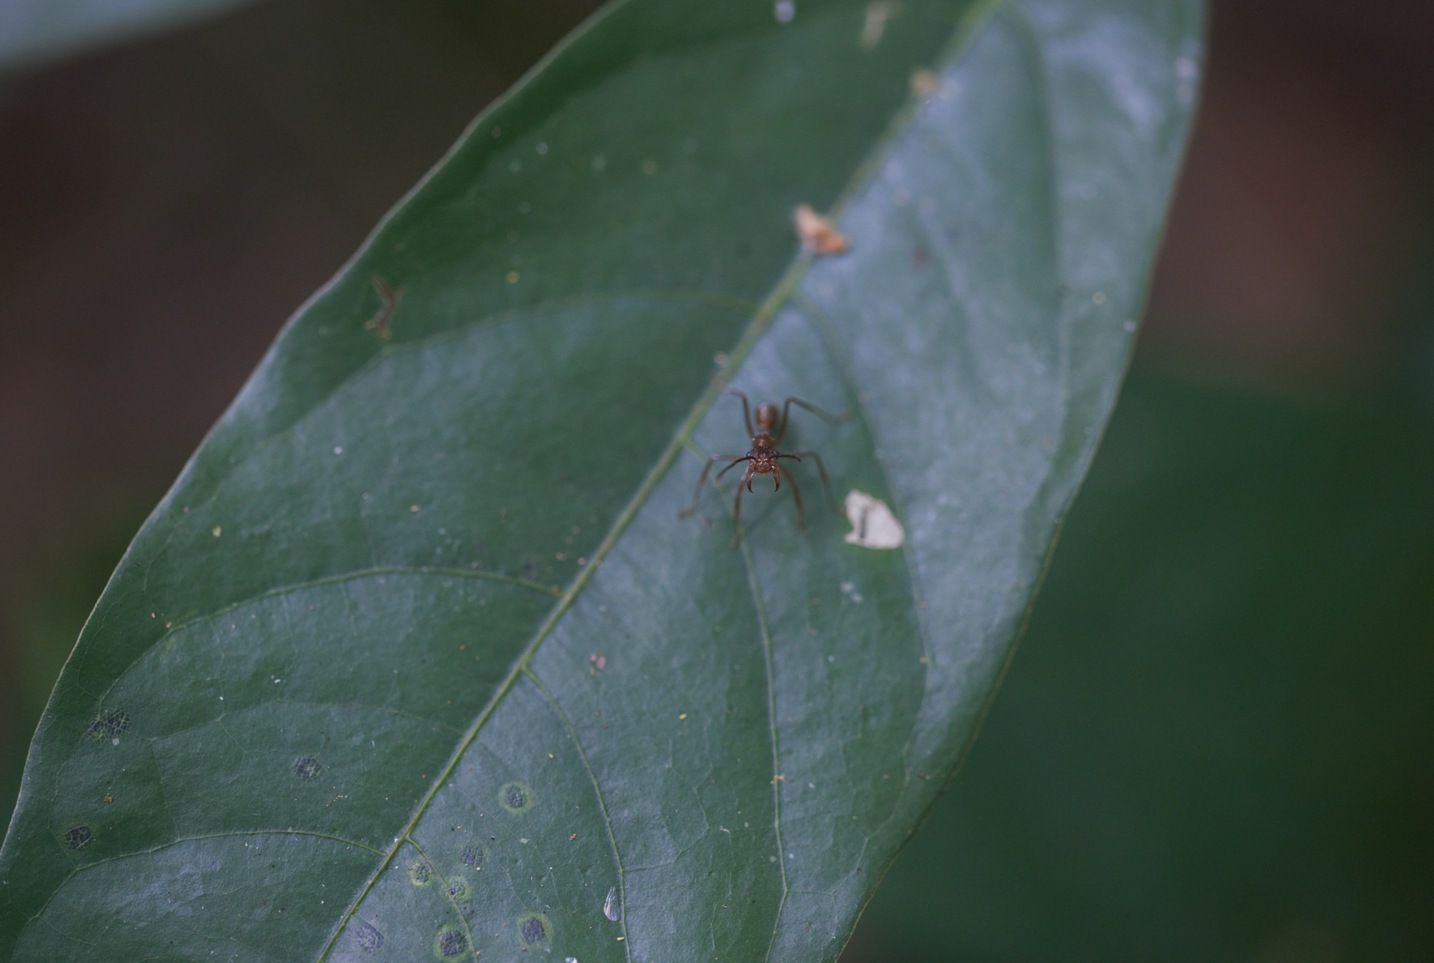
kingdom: Animalia
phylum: Arthropoda
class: Insecta
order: Hymenoptera
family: Formicidae
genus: Ectatomma
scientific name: Ectatomma tuberculatum
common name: Ant
